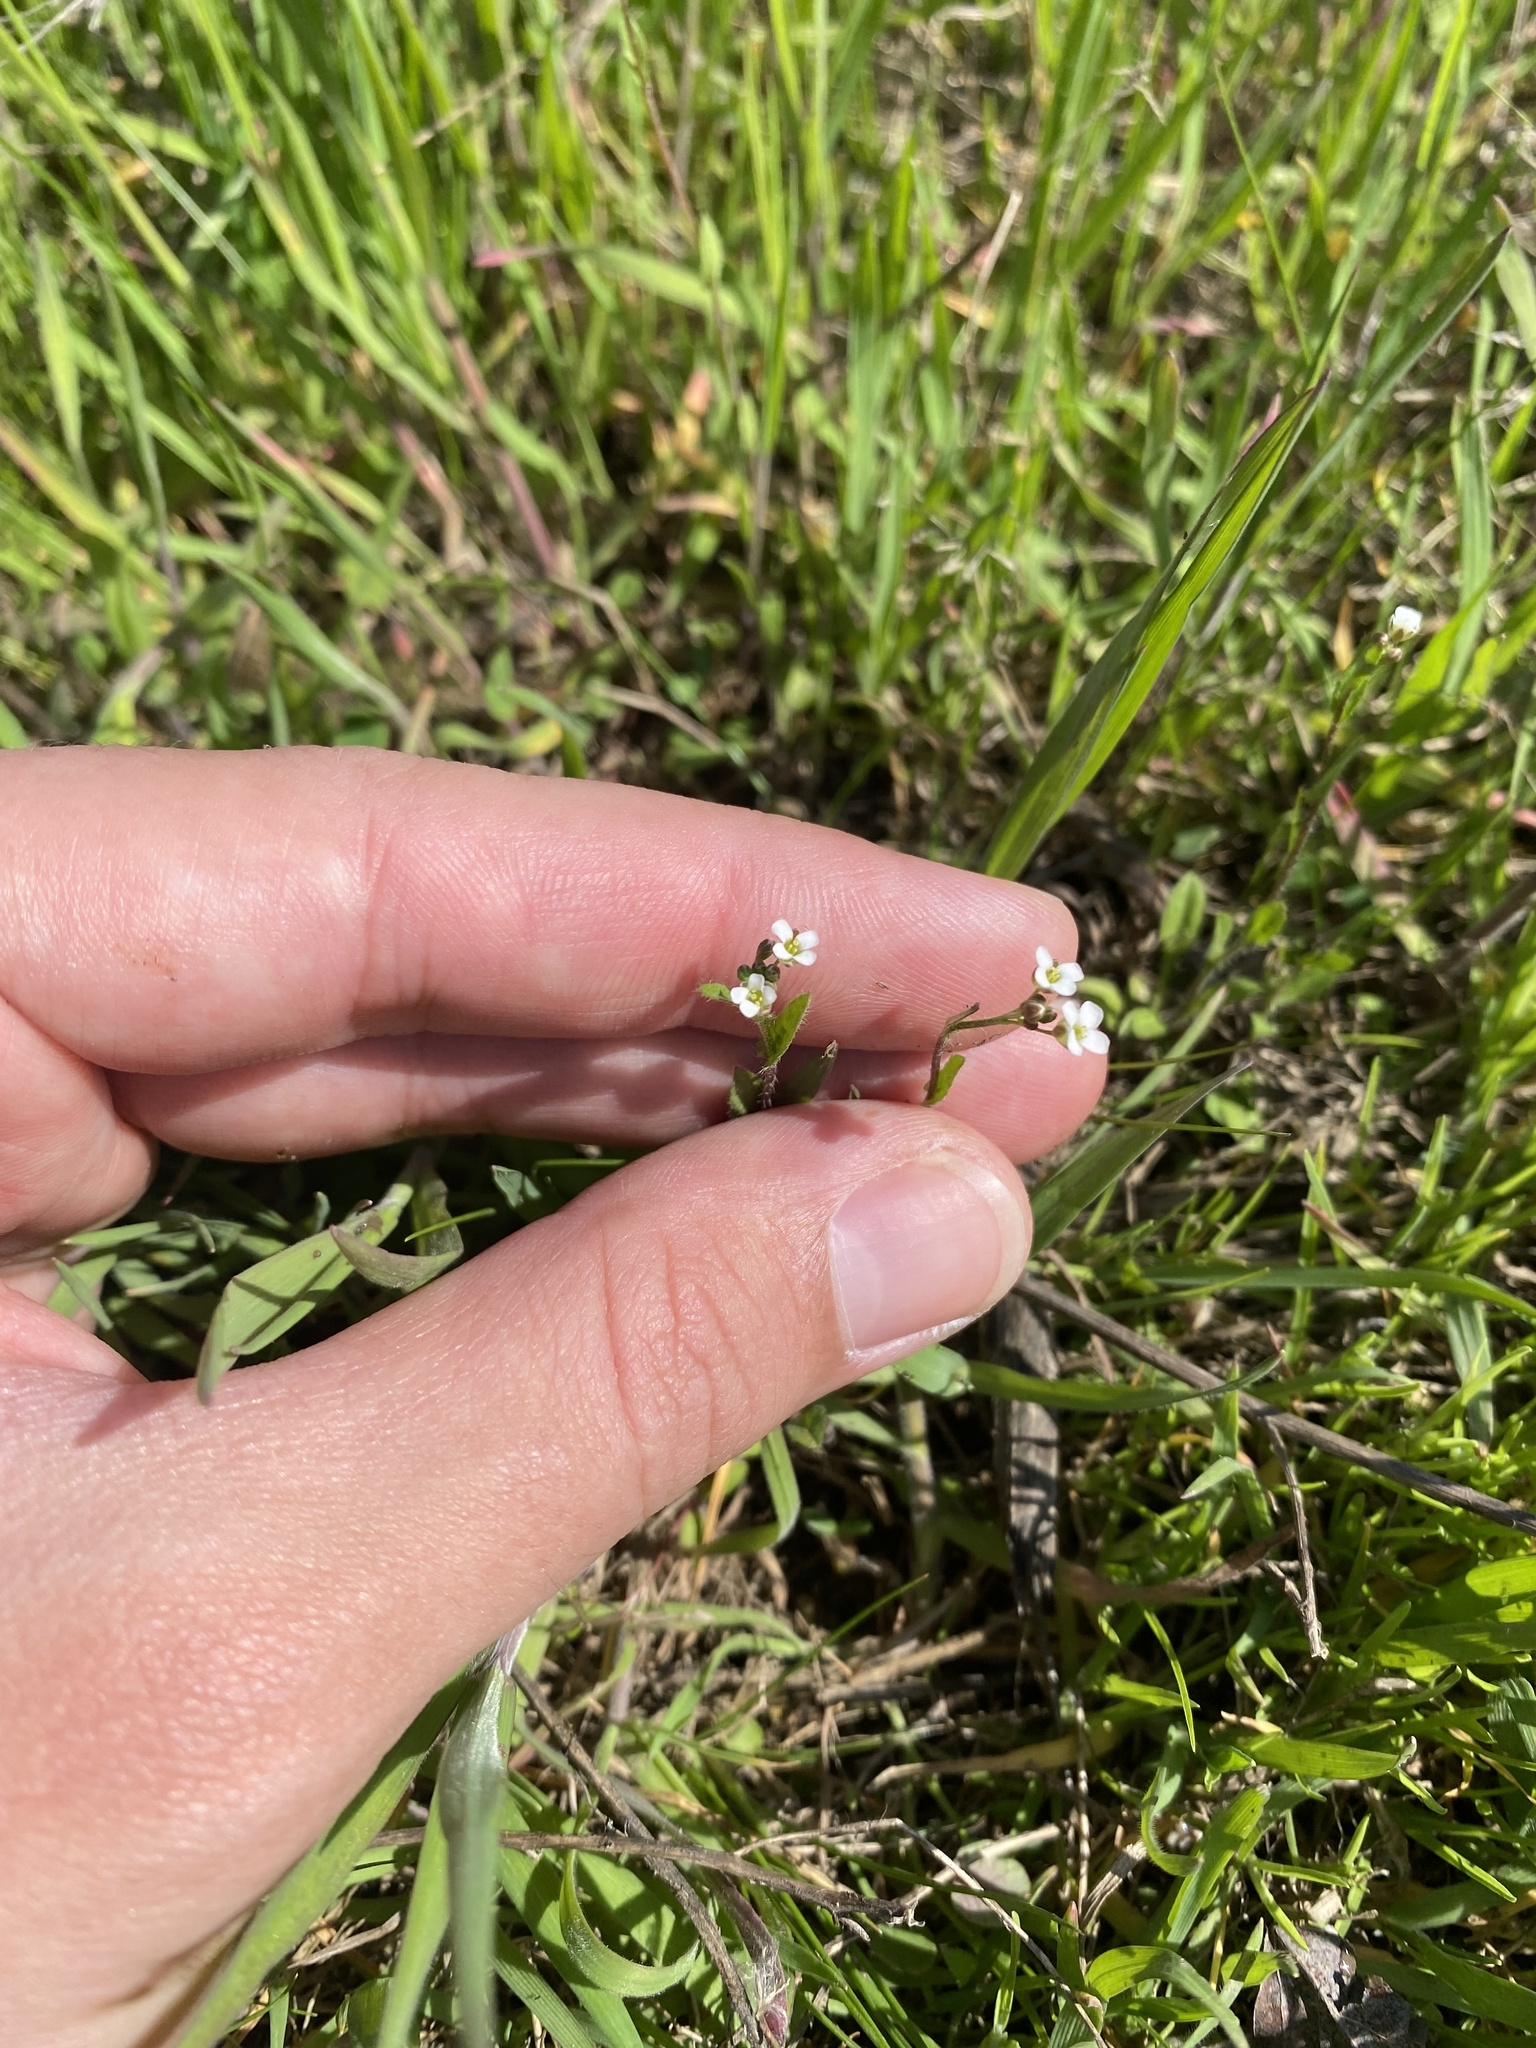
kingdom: Plantae
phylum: Tracheophyta
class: Magnoliopsida
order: Brassicales
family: Brassicaceae
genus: Capsella
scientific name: Capsella bursa-pastoris
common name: Shepherd's purse
